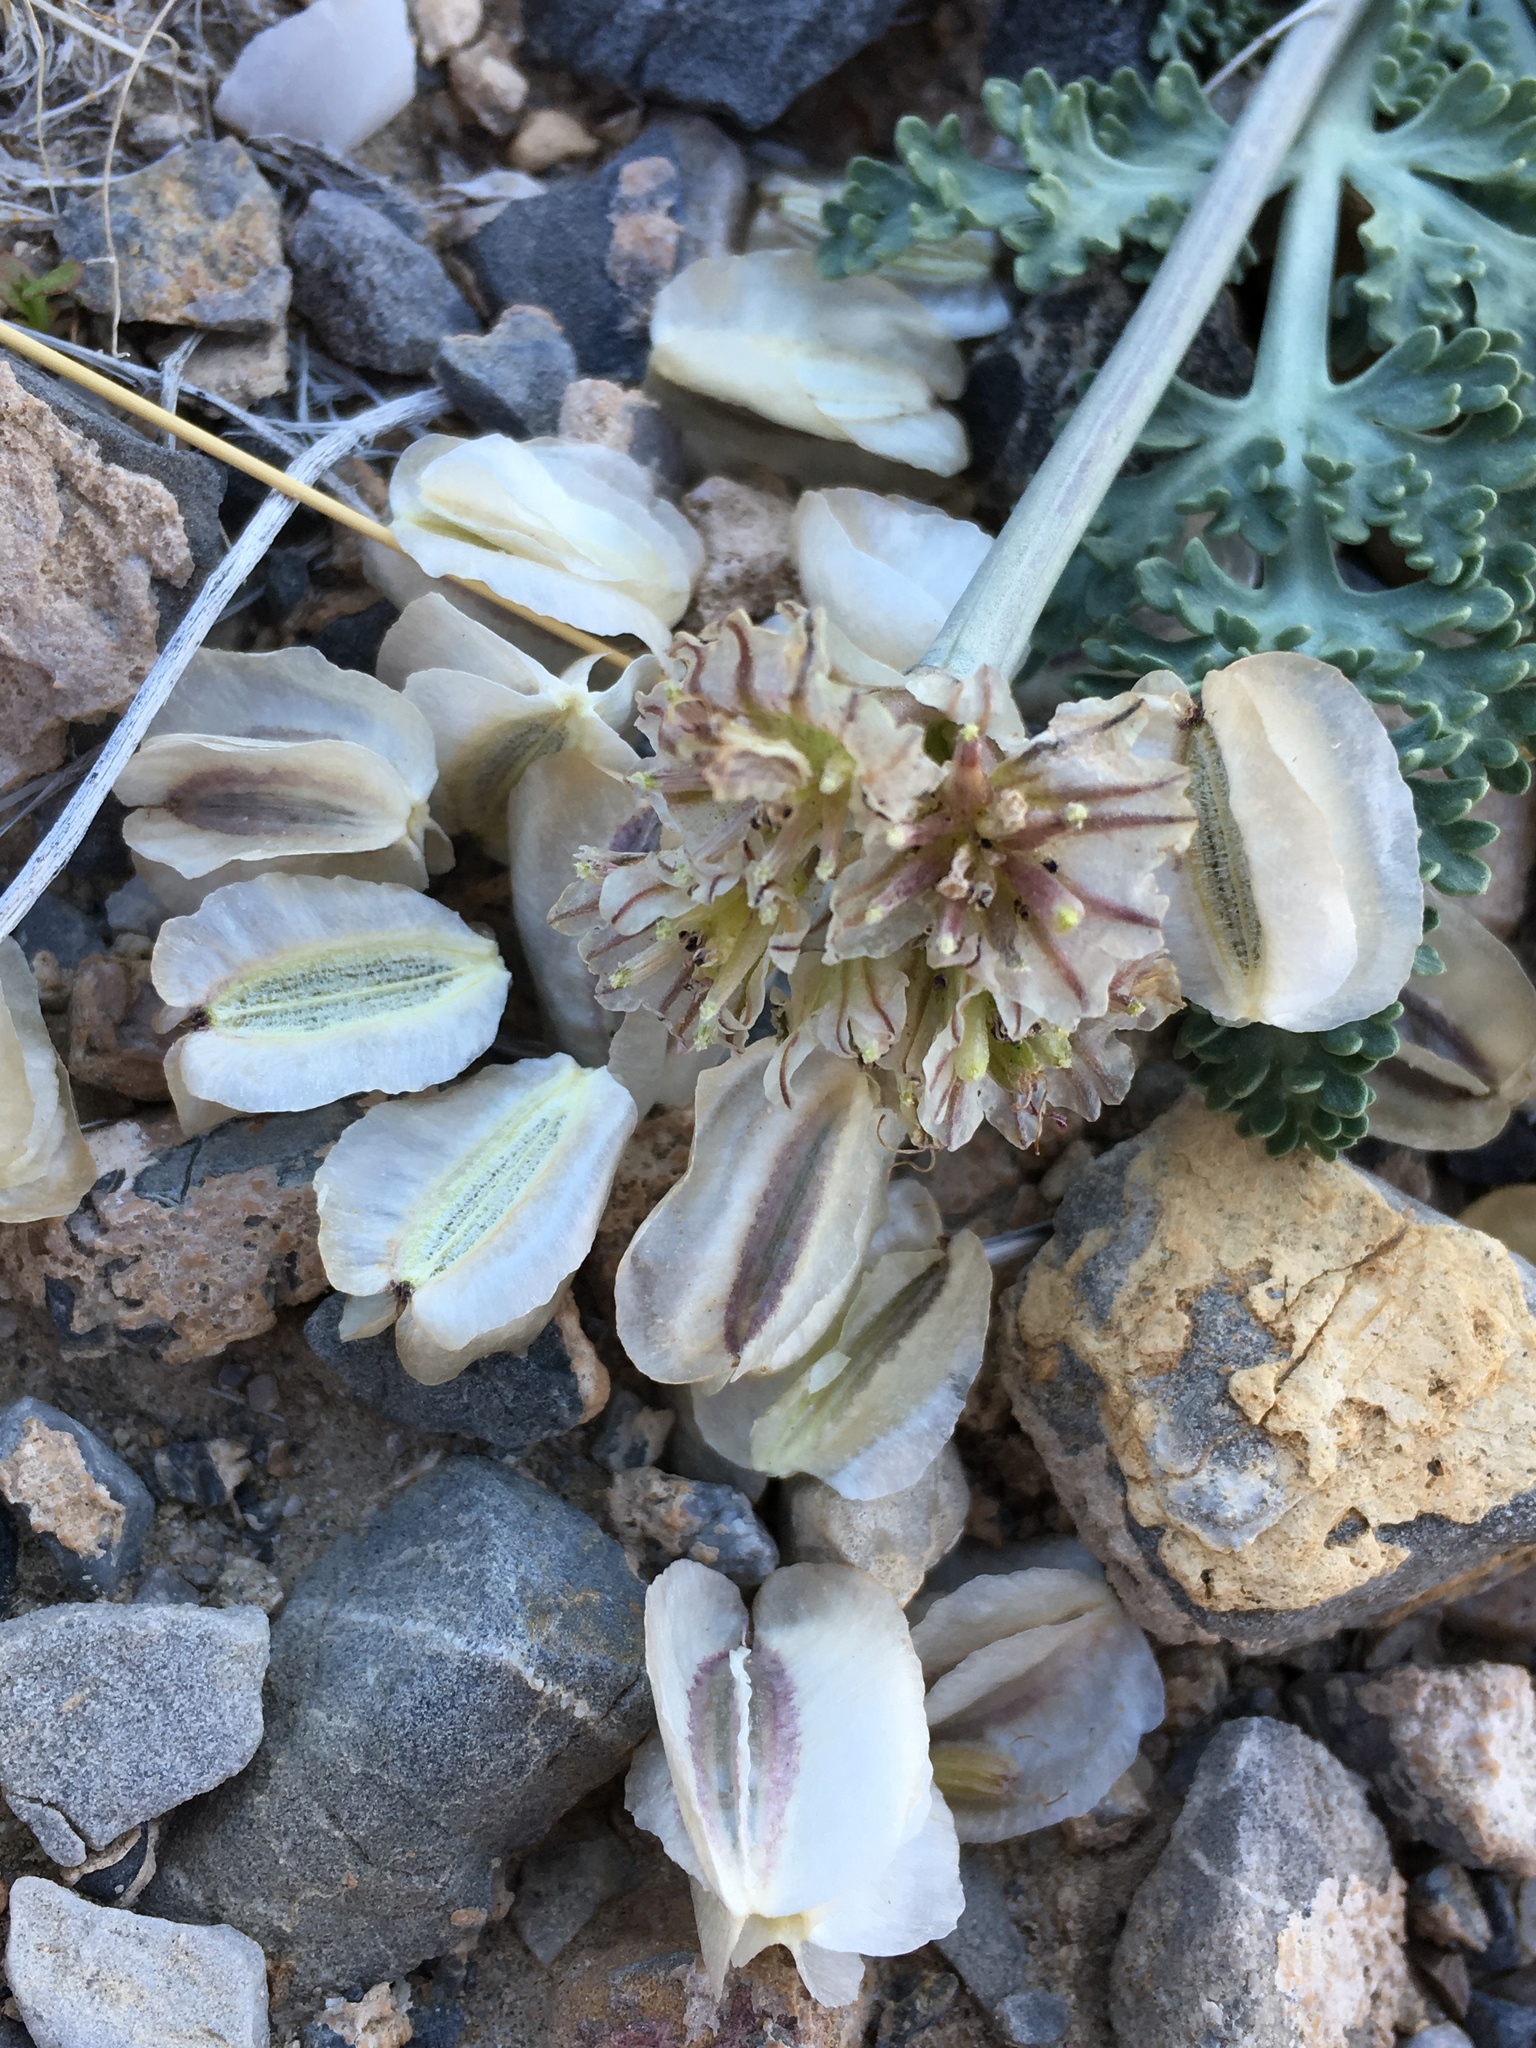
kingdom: Plantae
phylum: Tracheophyta
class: Magnoliopsida
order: Apiales
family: Apiaceae
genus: Vesper
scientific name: Vesper purpurascens
